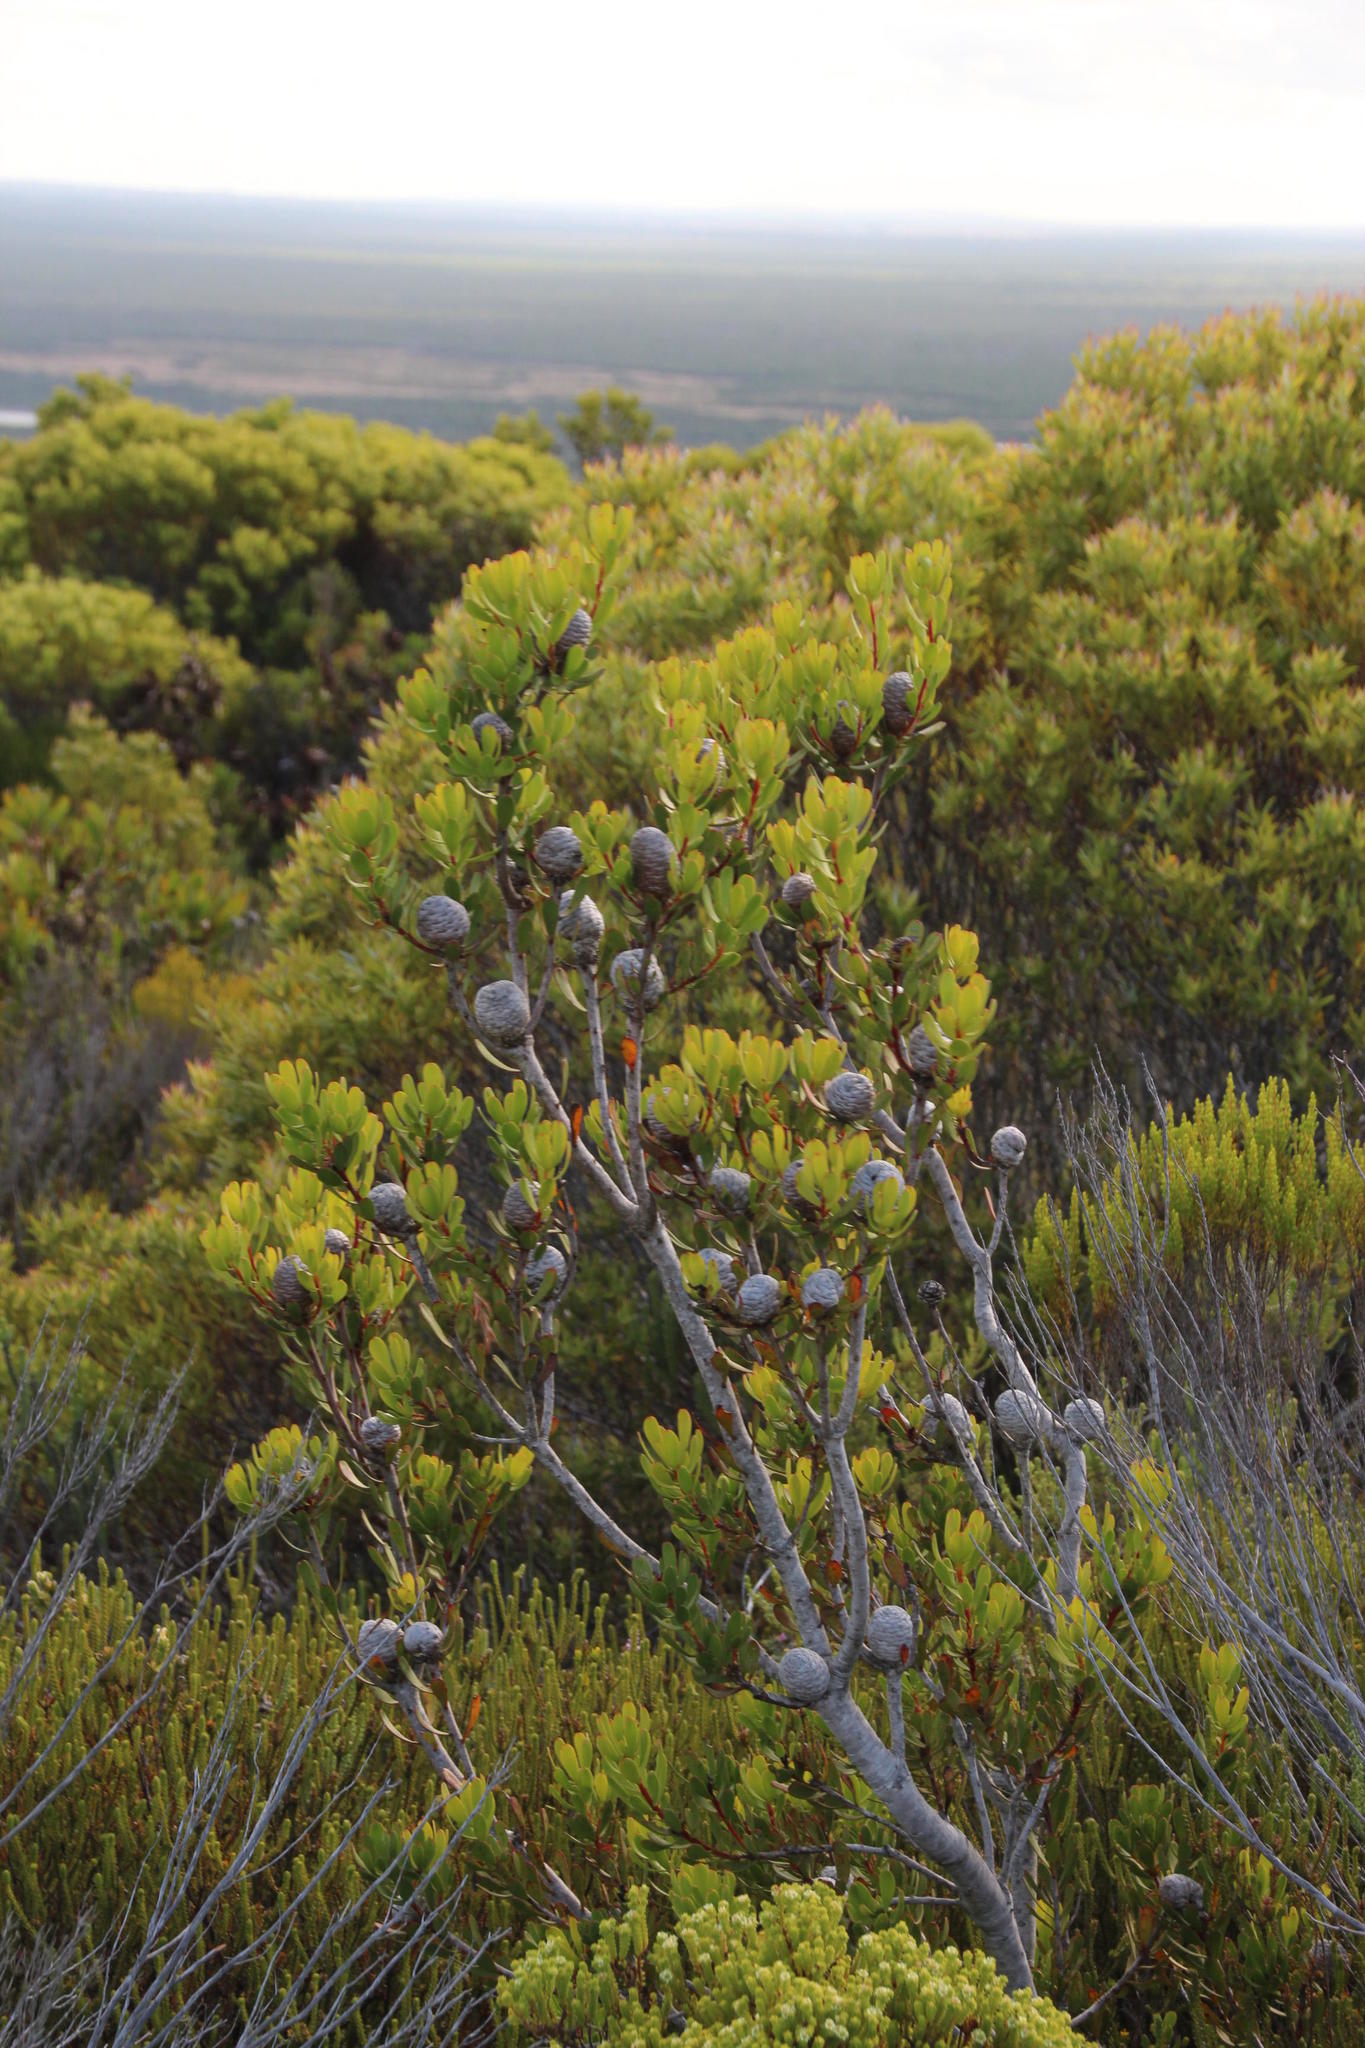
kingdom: Plantae
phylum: Tracheophyta
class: Magnoliopsida
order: Proteales
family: Proteaceae
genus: Leucadendron
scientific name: Leucadendron muirii
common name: Silver-ball conebush
